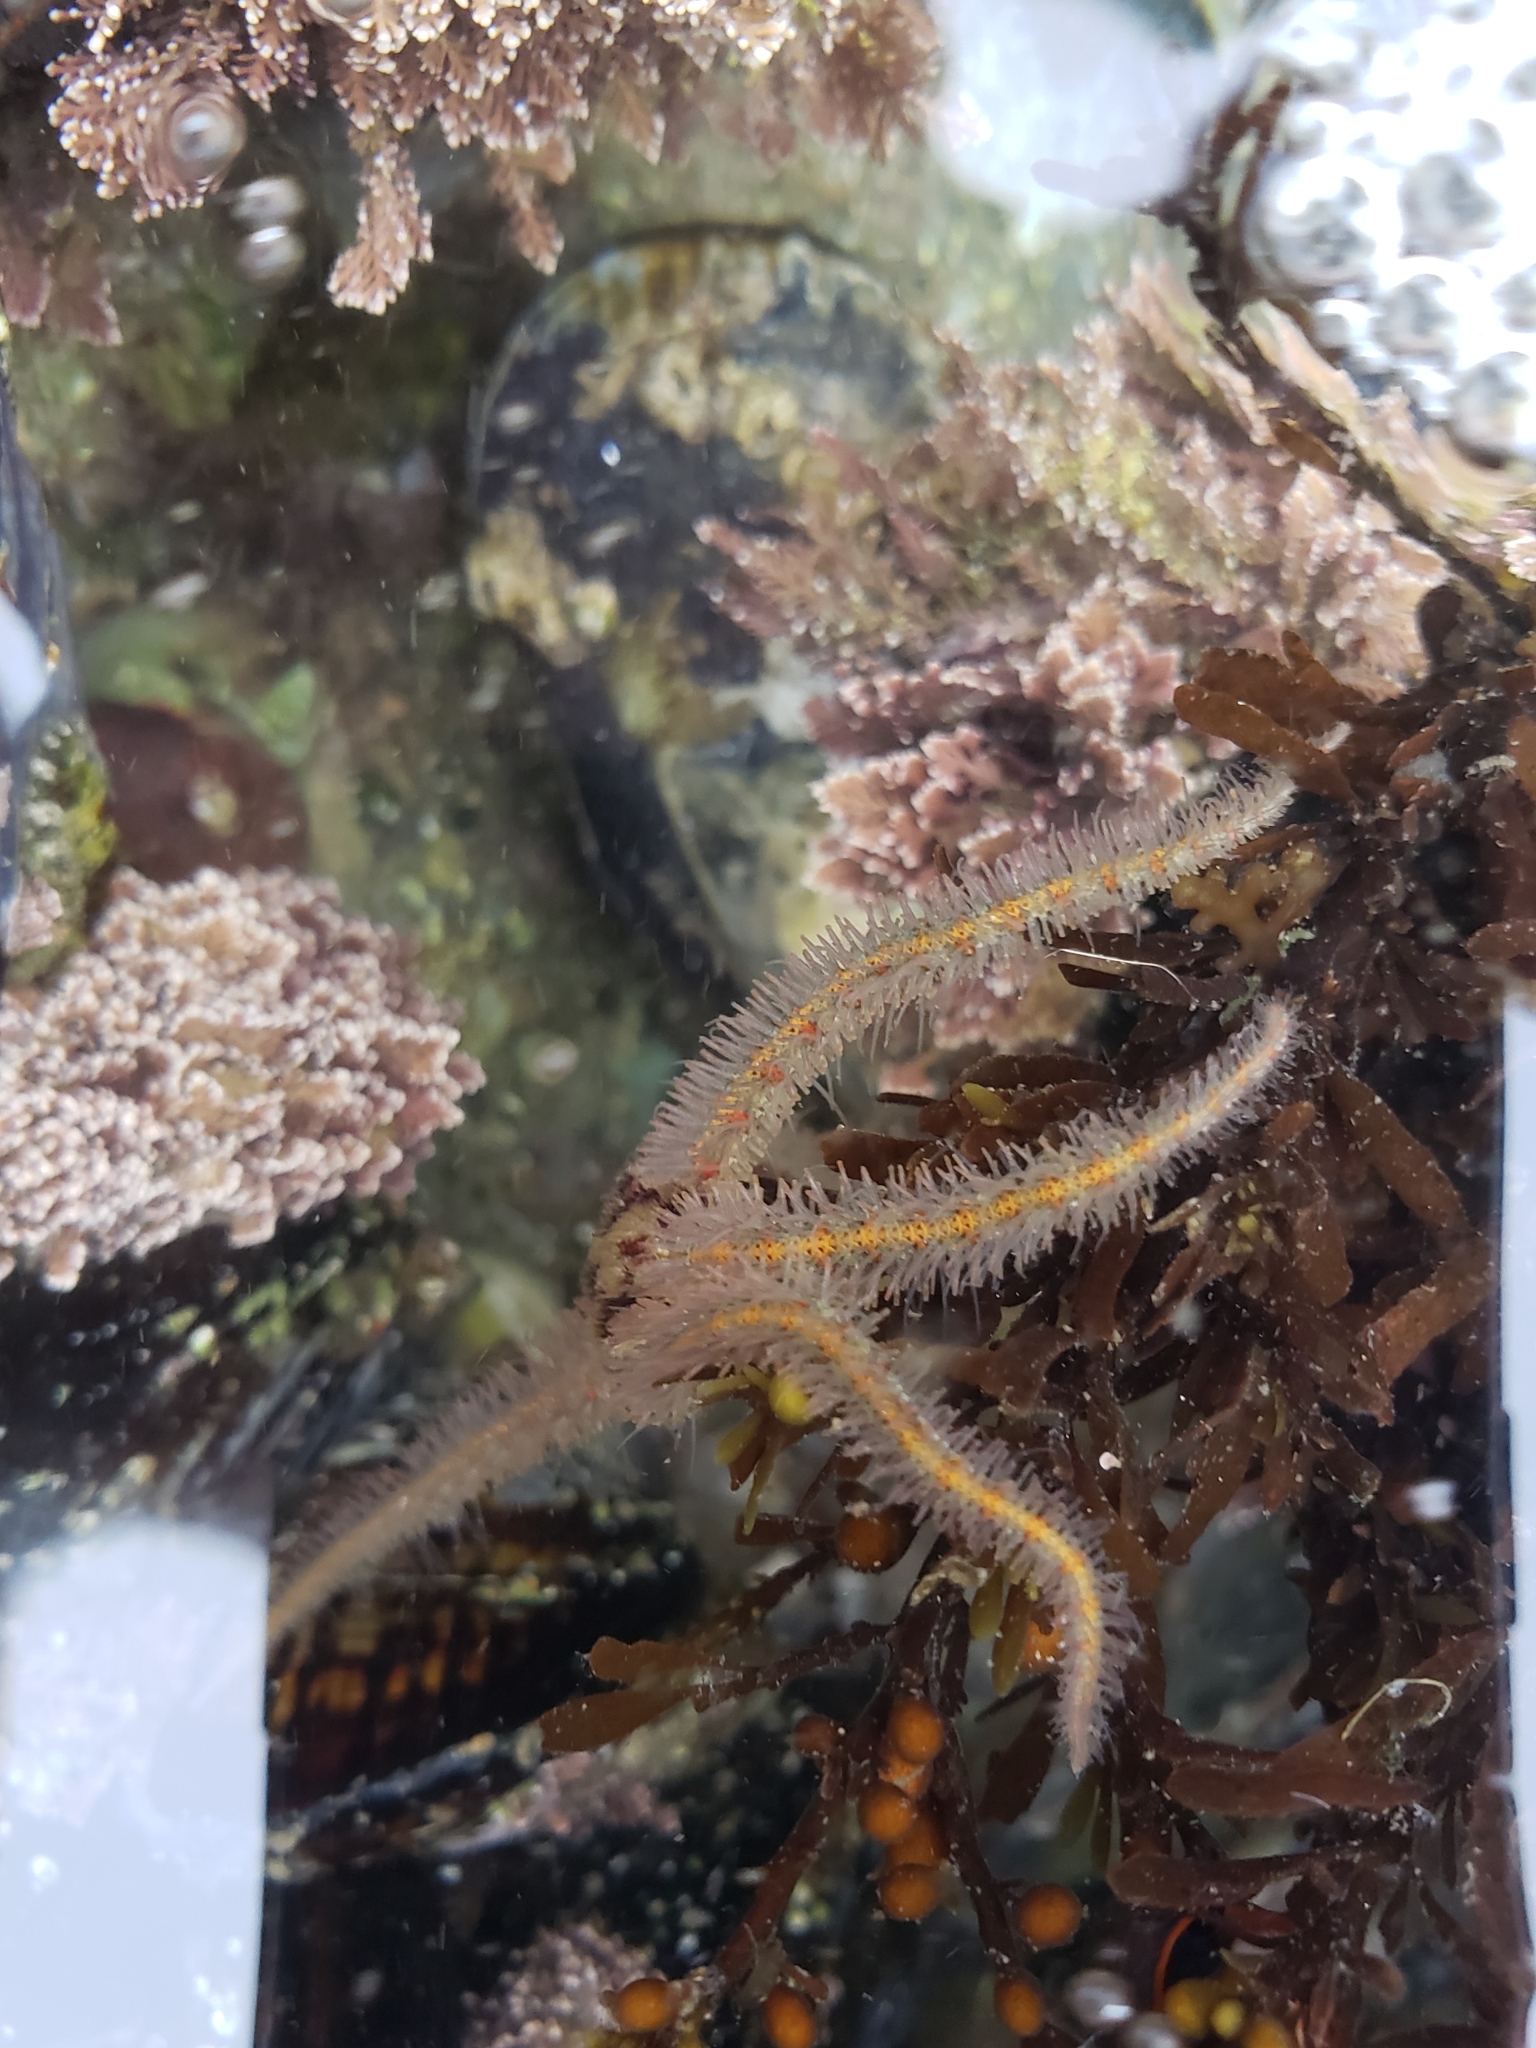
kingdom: Animalia
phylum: Echinodermata
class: Ophiuroidea
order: Amphilepidida
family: Ophiotrichidae
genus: Ophiothrix
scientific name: Ophiothrix spiculata
